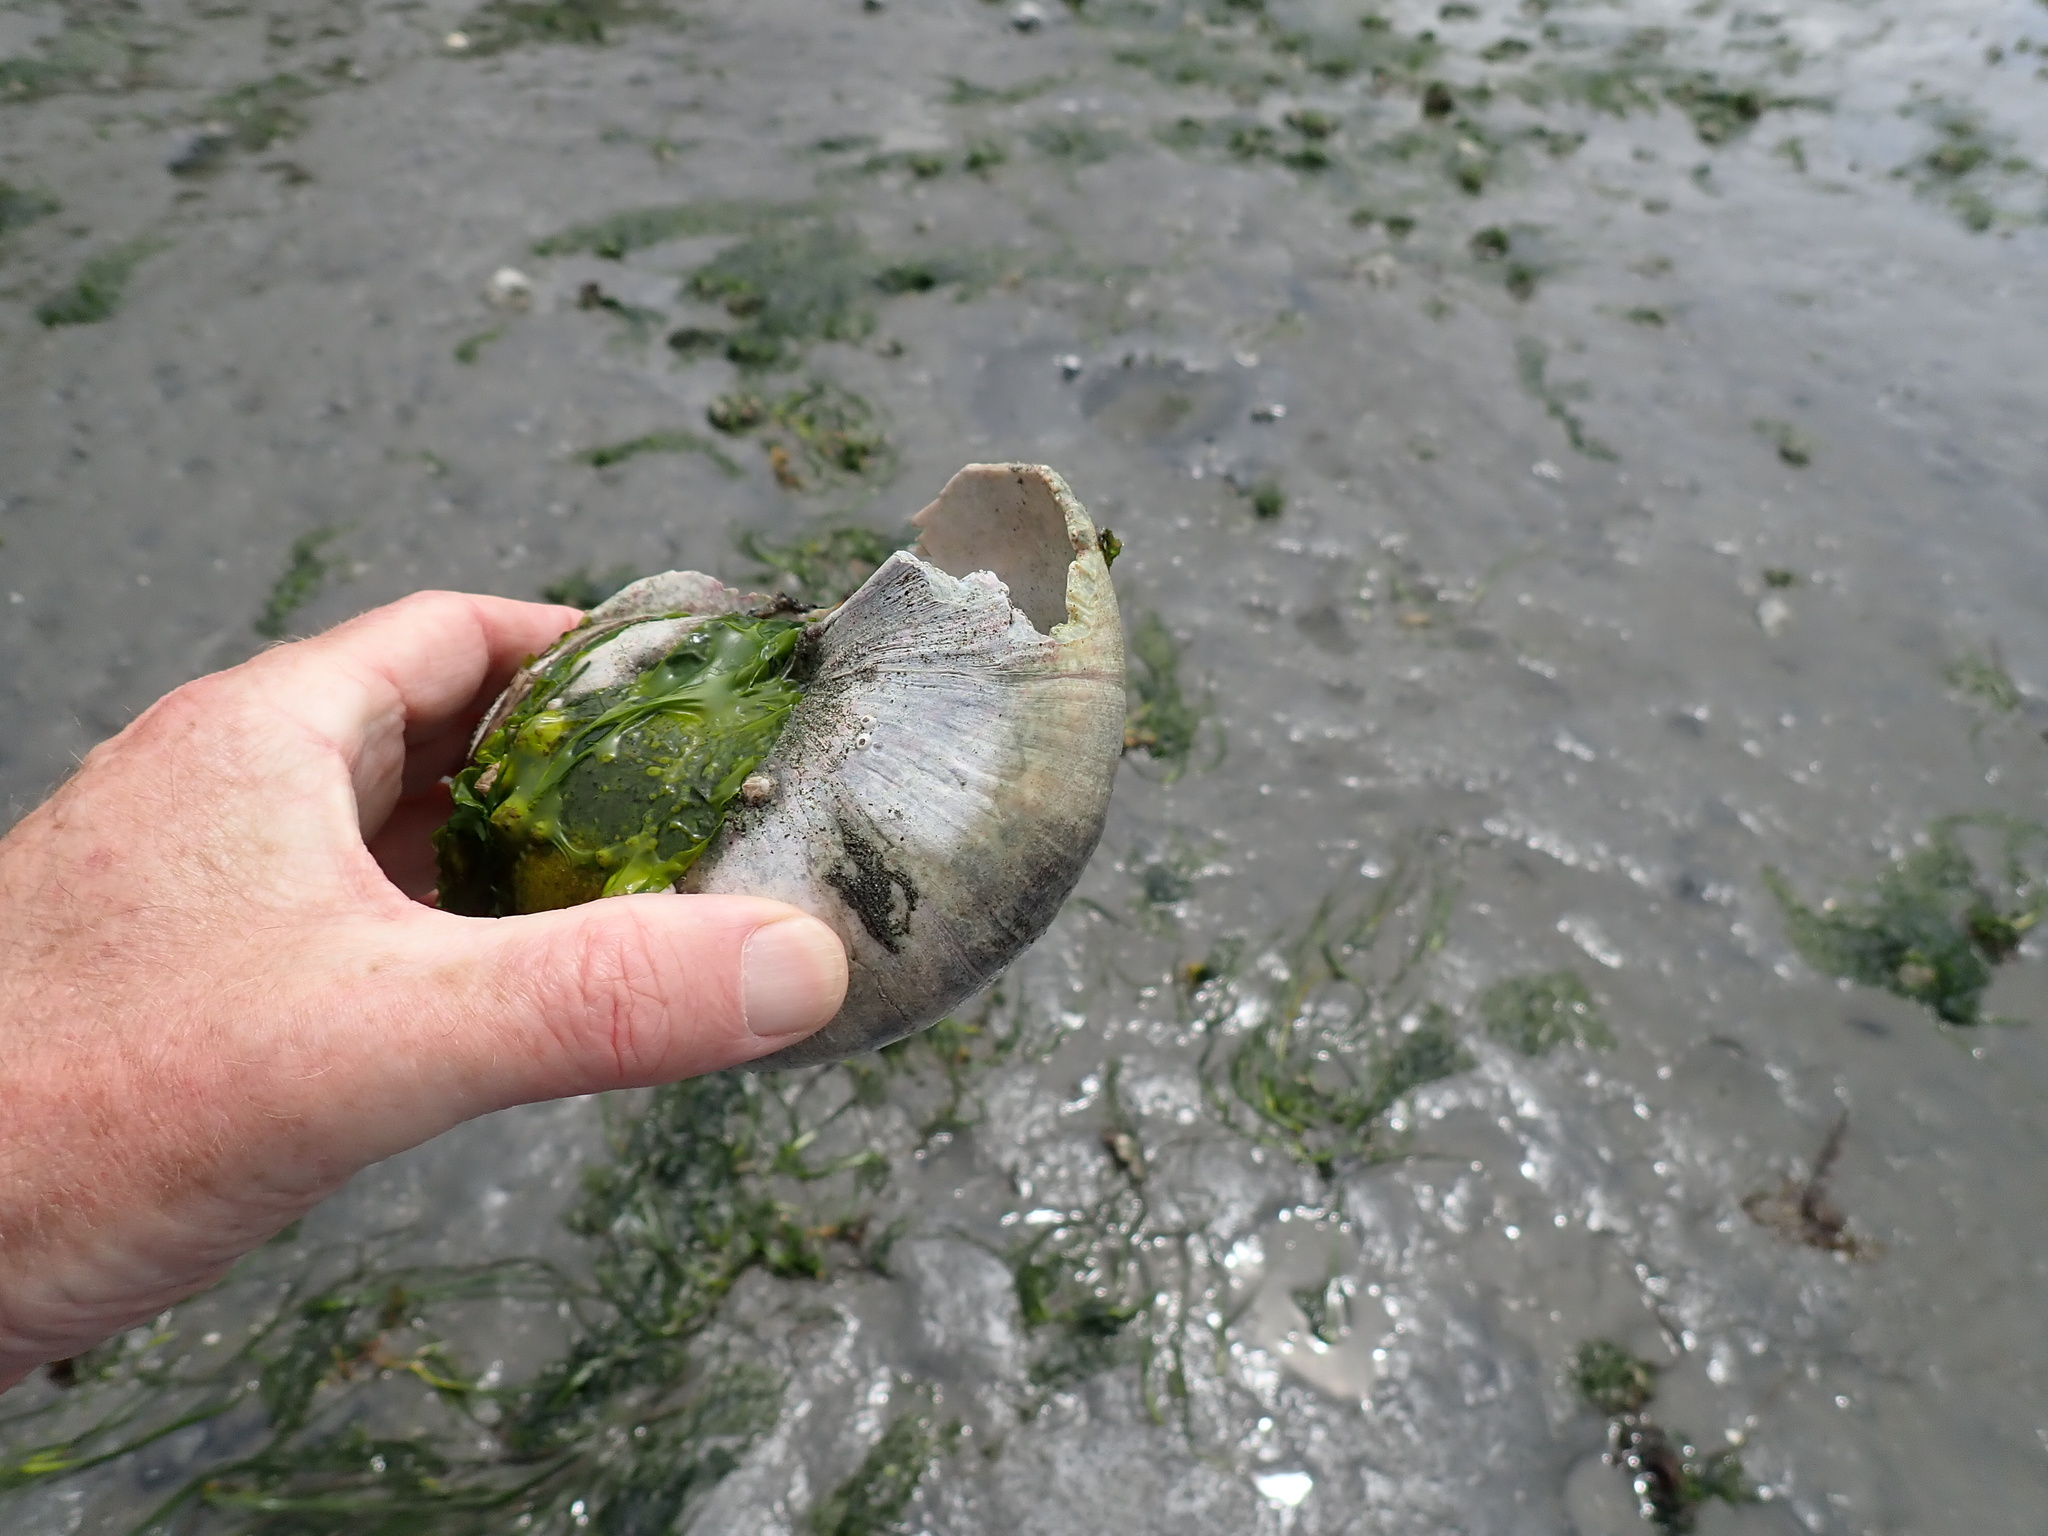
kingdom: Animalia
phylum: Mollusca
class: Gastropoda
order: Littorinimorpha
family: Naticidae
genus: Neverita
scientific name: Neverita lewisii
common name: Lewis' moonsnail
